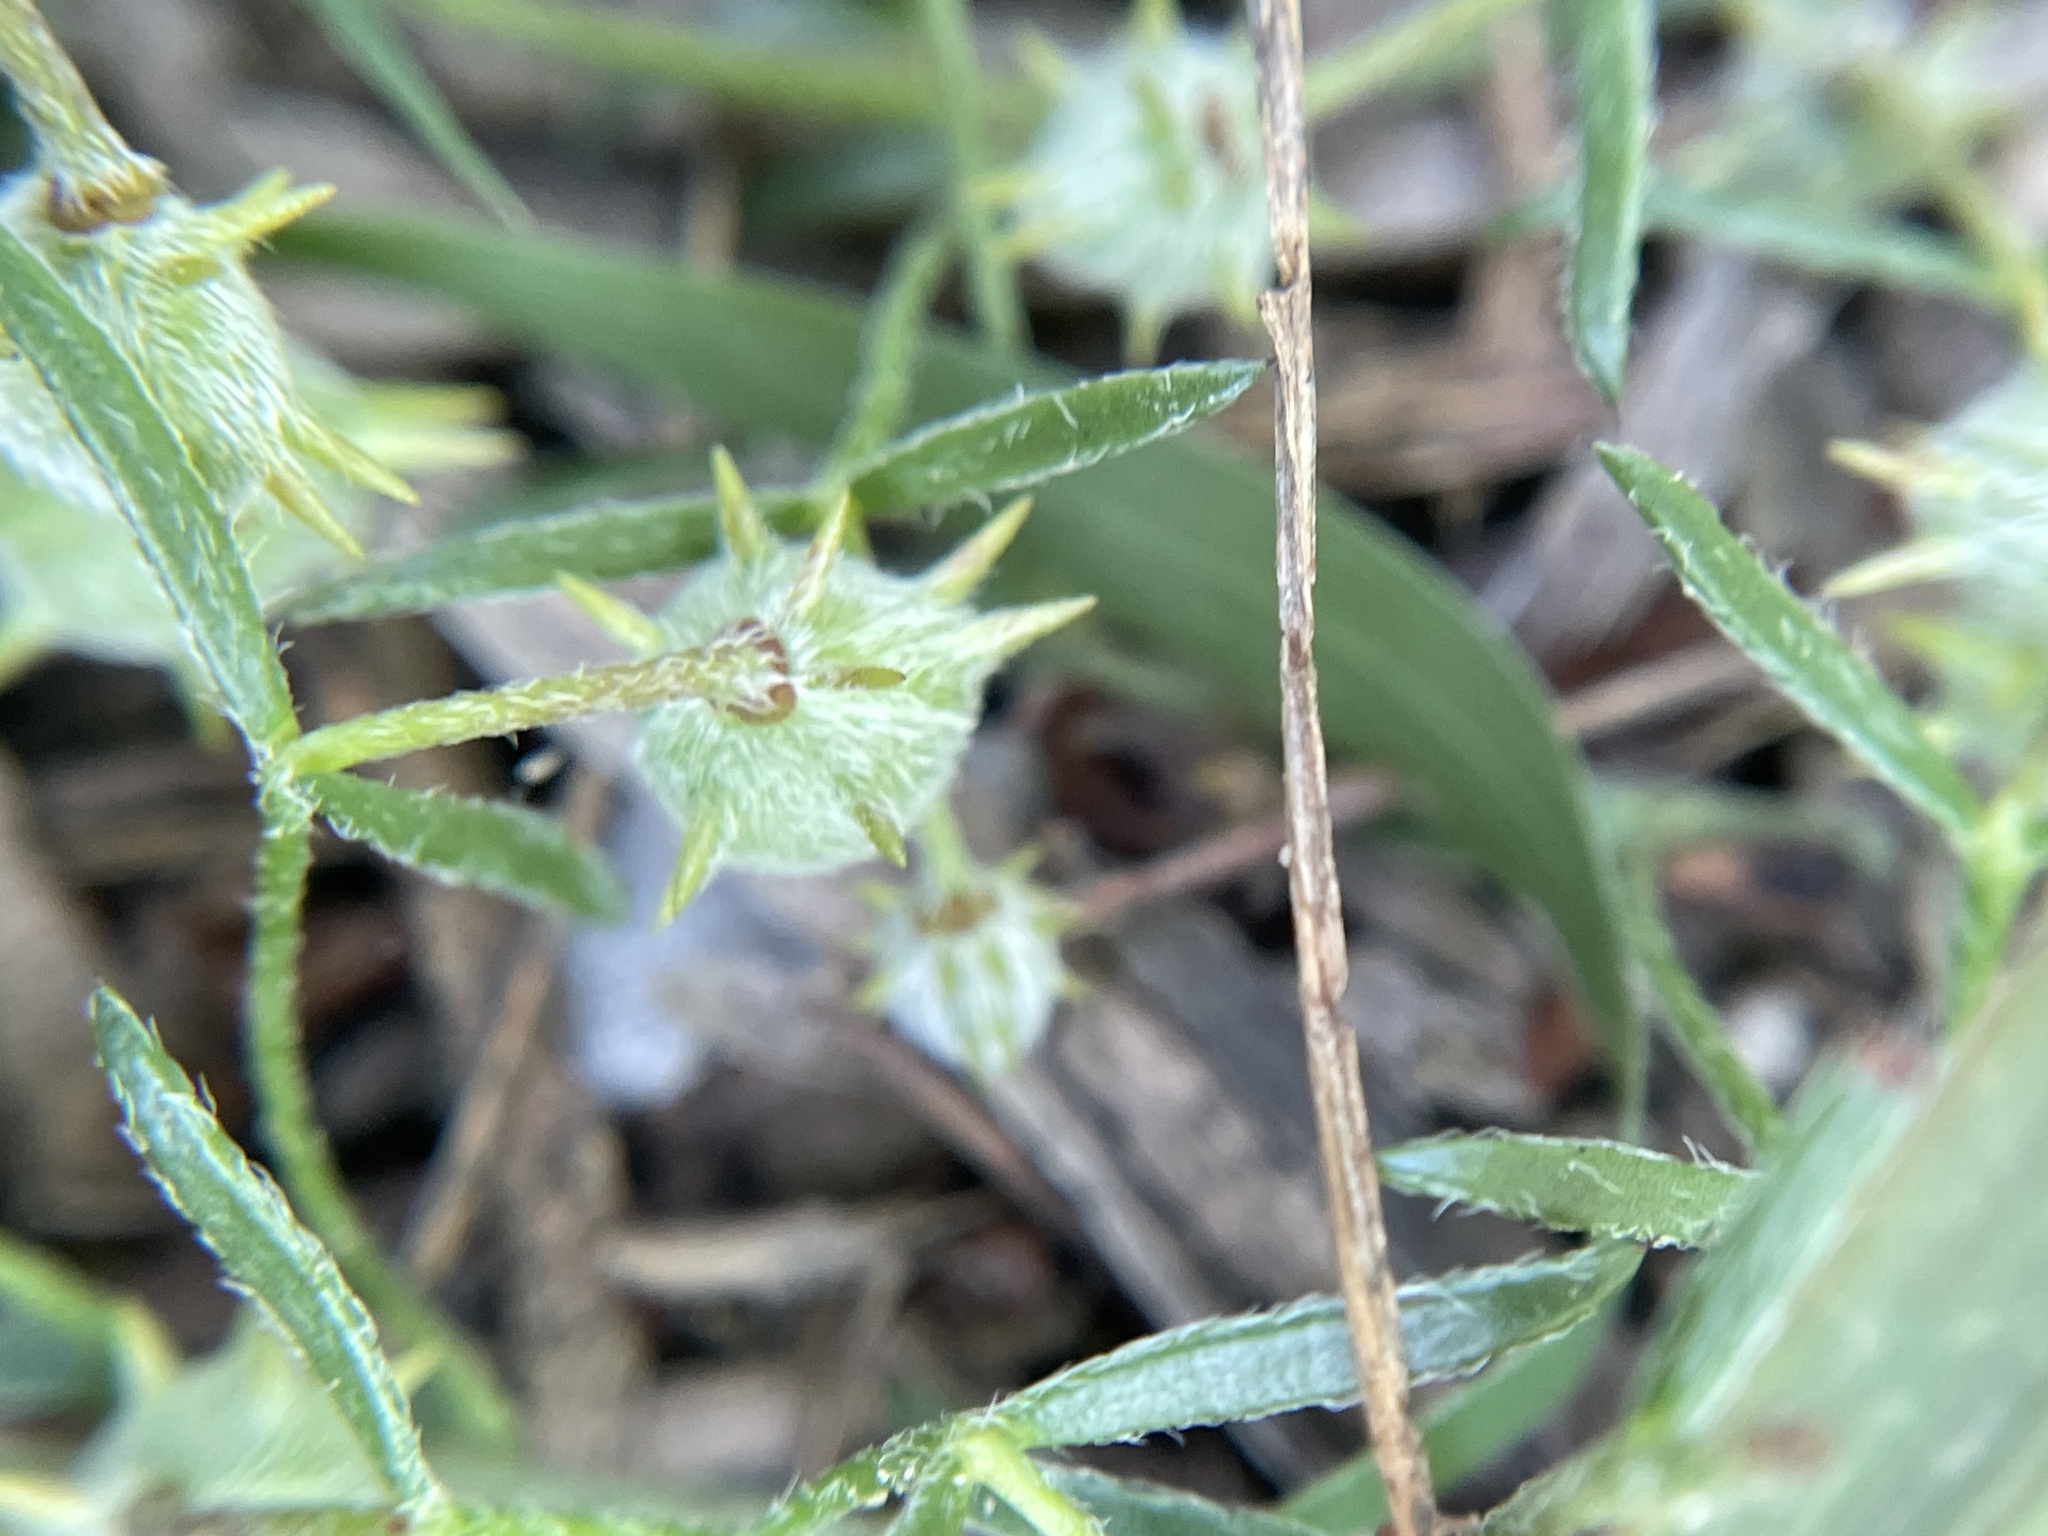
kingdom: Plantae
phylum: Tracheophyta
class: Magnoliopsida
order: Zygophyllales
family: Krameriaceae
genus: Krameria
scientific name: Krameria lanceolata
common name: Ratany
